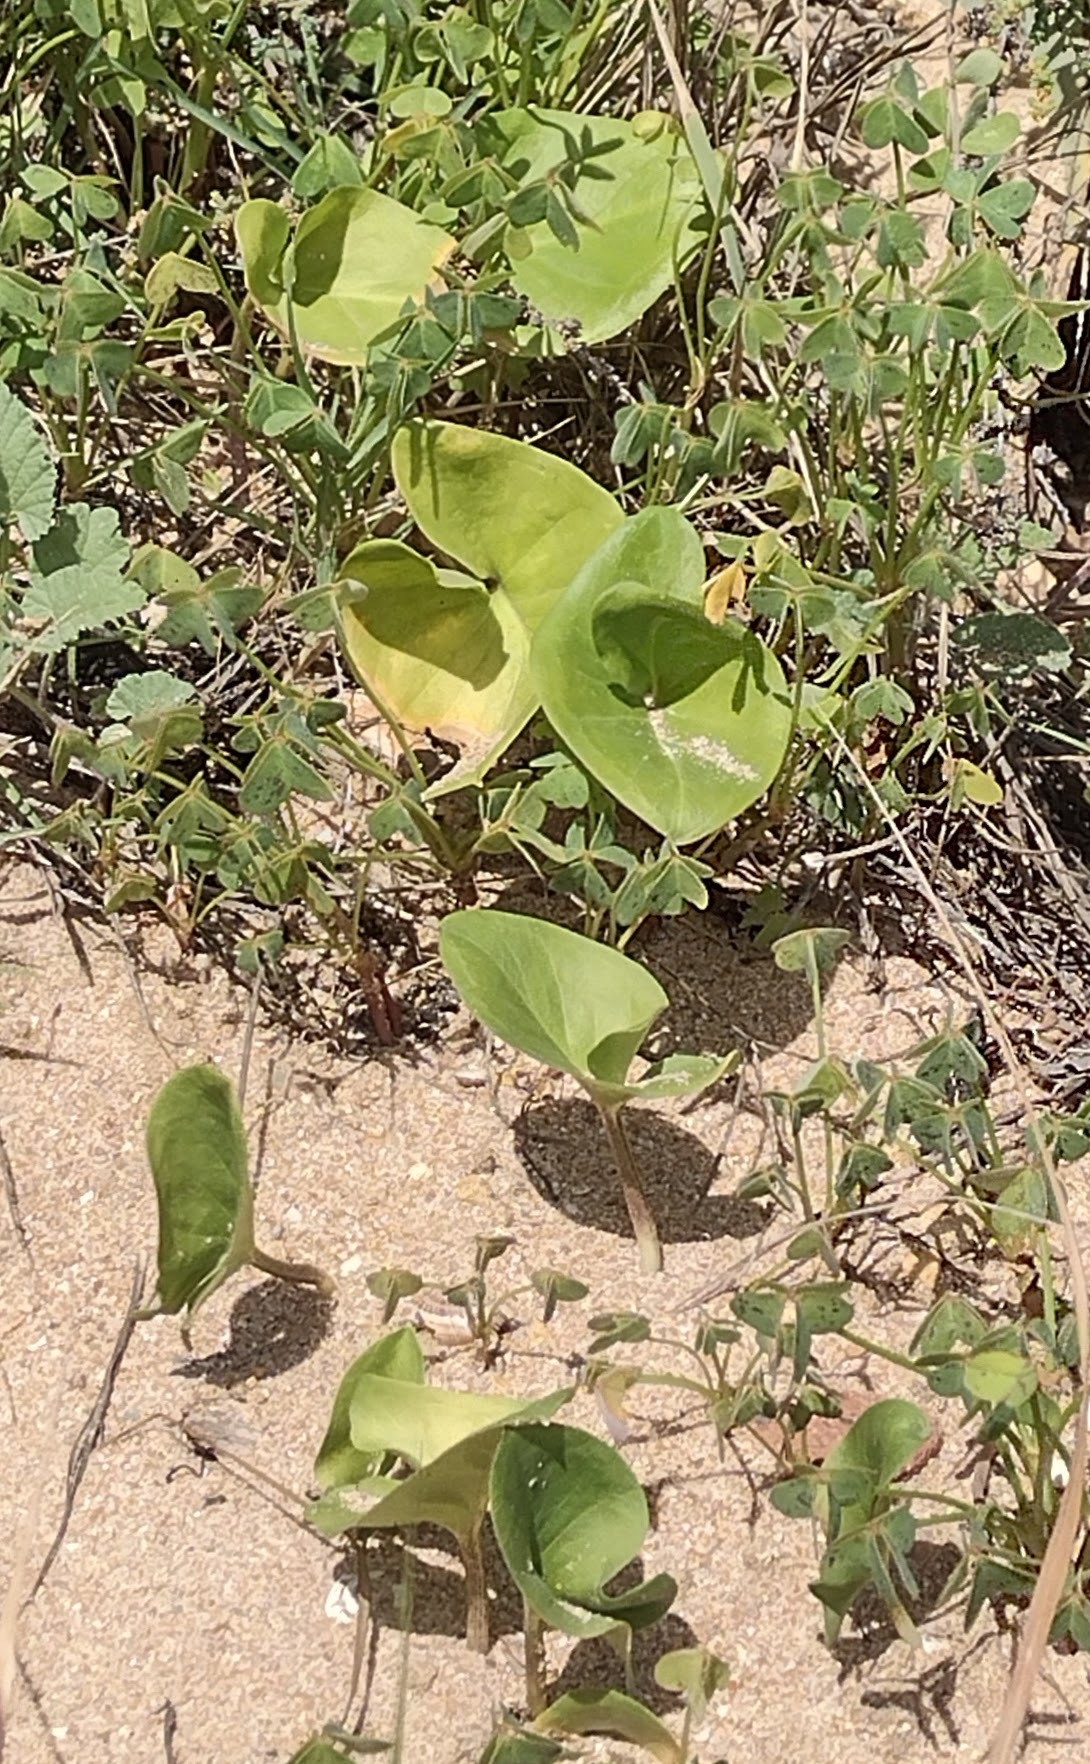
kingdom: Plantae
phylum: Tracheophyta
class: Liliopsida
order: Alismatales
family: Araceae
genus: Arisarum
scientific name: Arisarum simorrhinum
